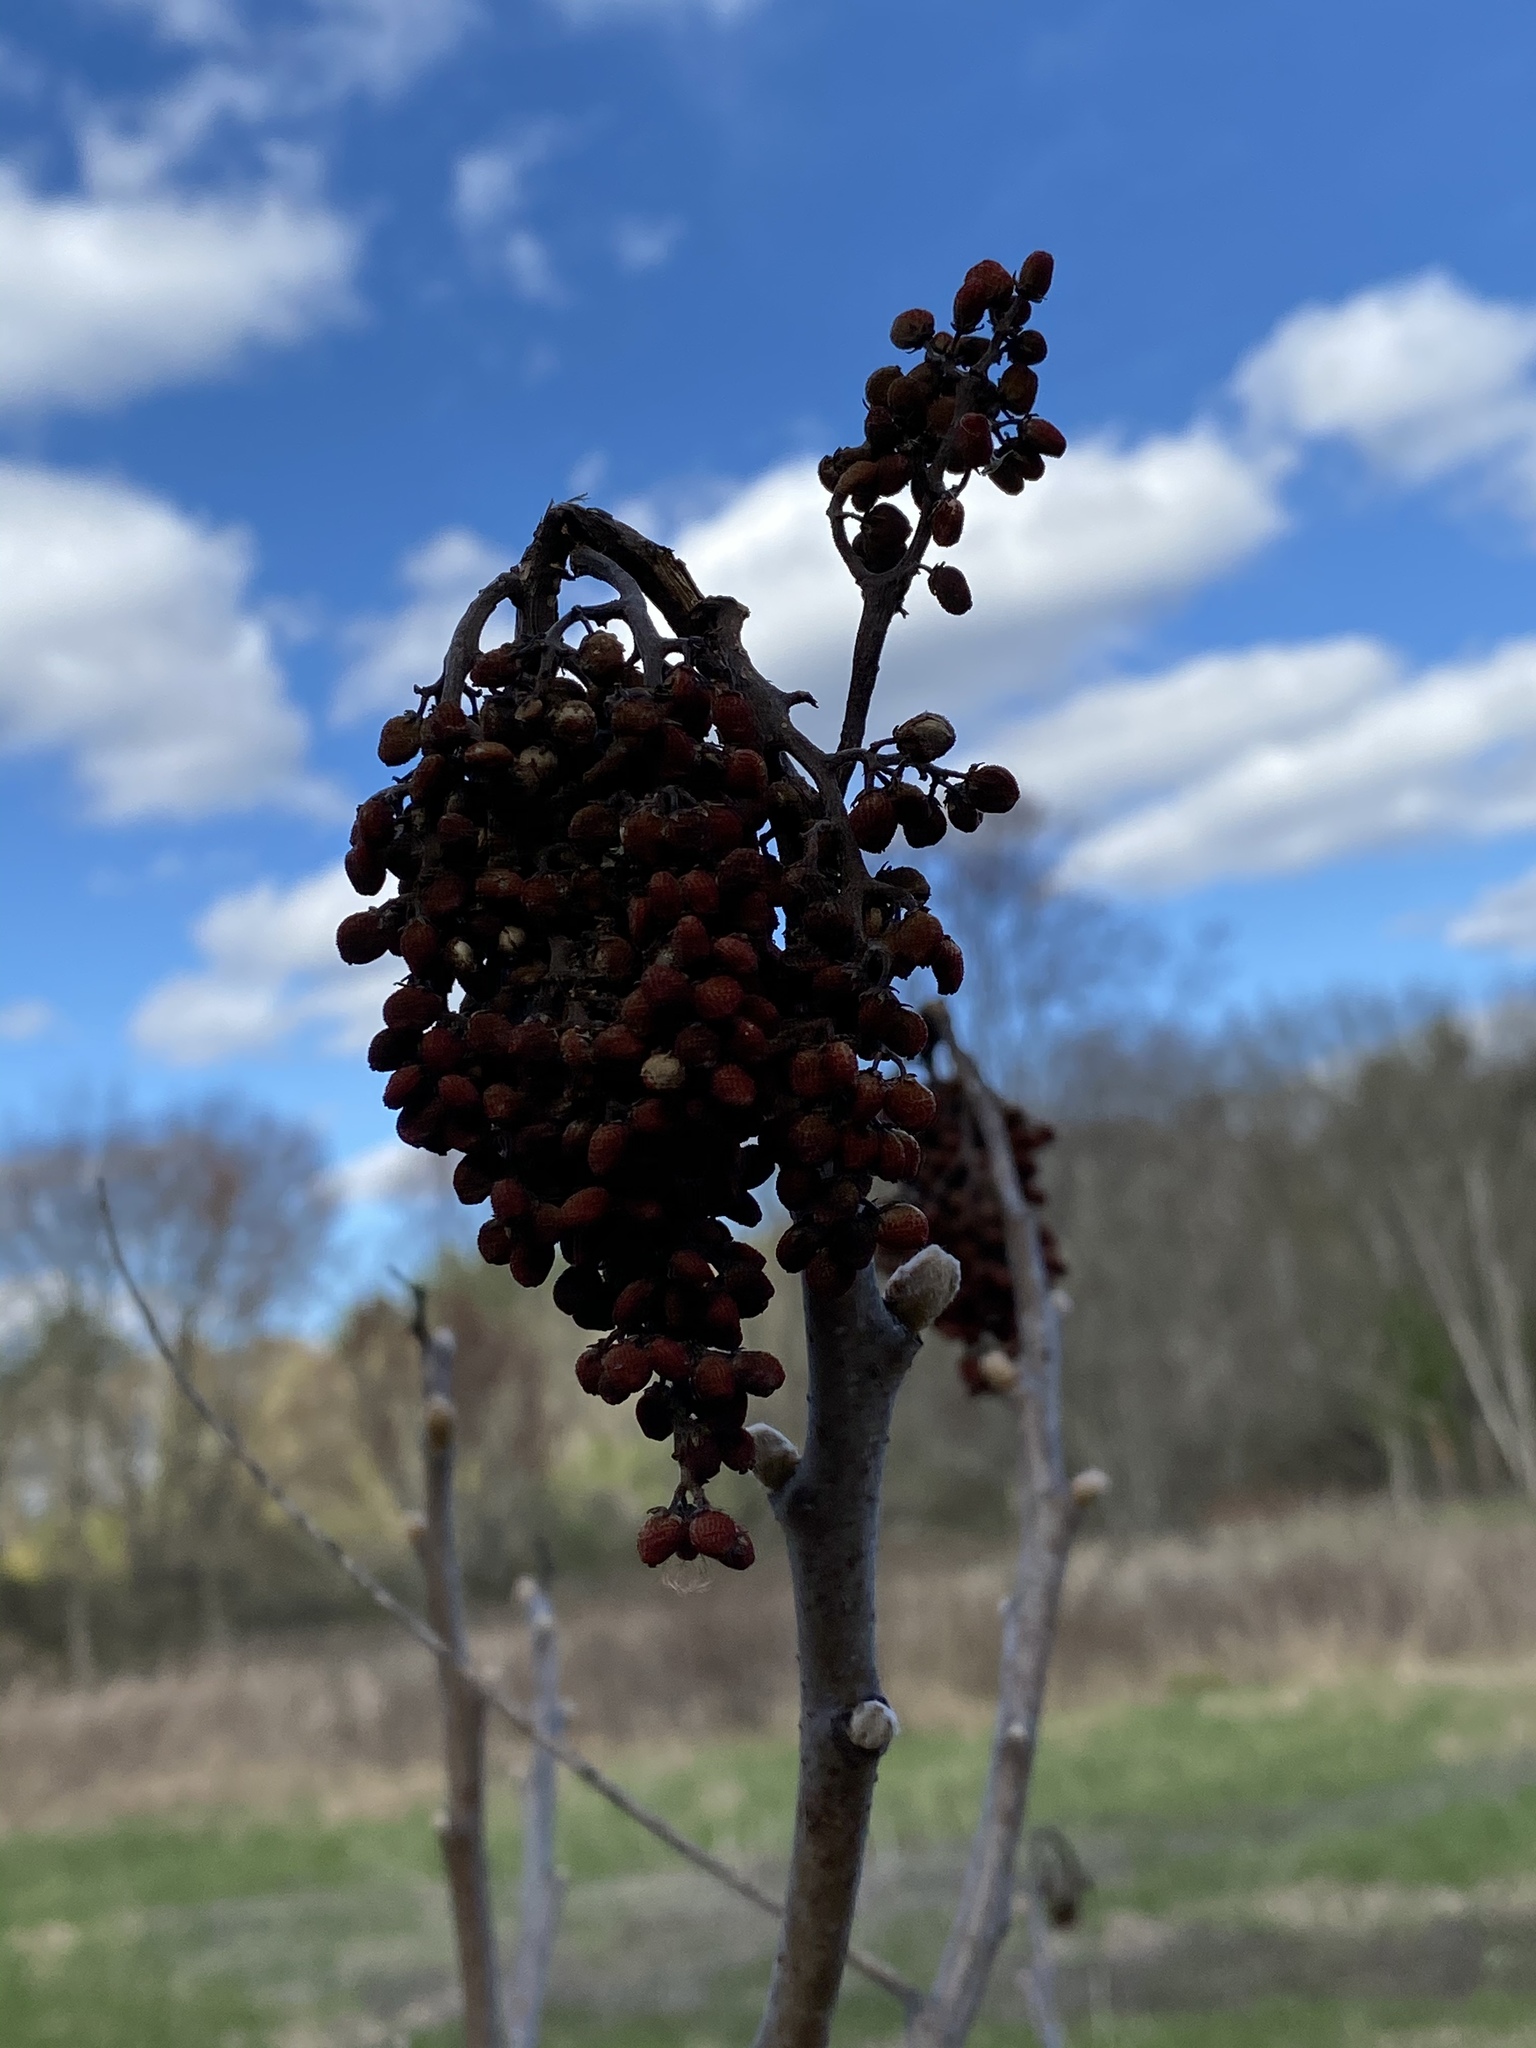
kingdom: Plantae
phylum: Tracheophyta
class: Magnoliopsida
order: Sapindales
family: Anacardiaceae
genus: Rhus
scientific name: Rhus glabra
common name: Scarlet sumac
